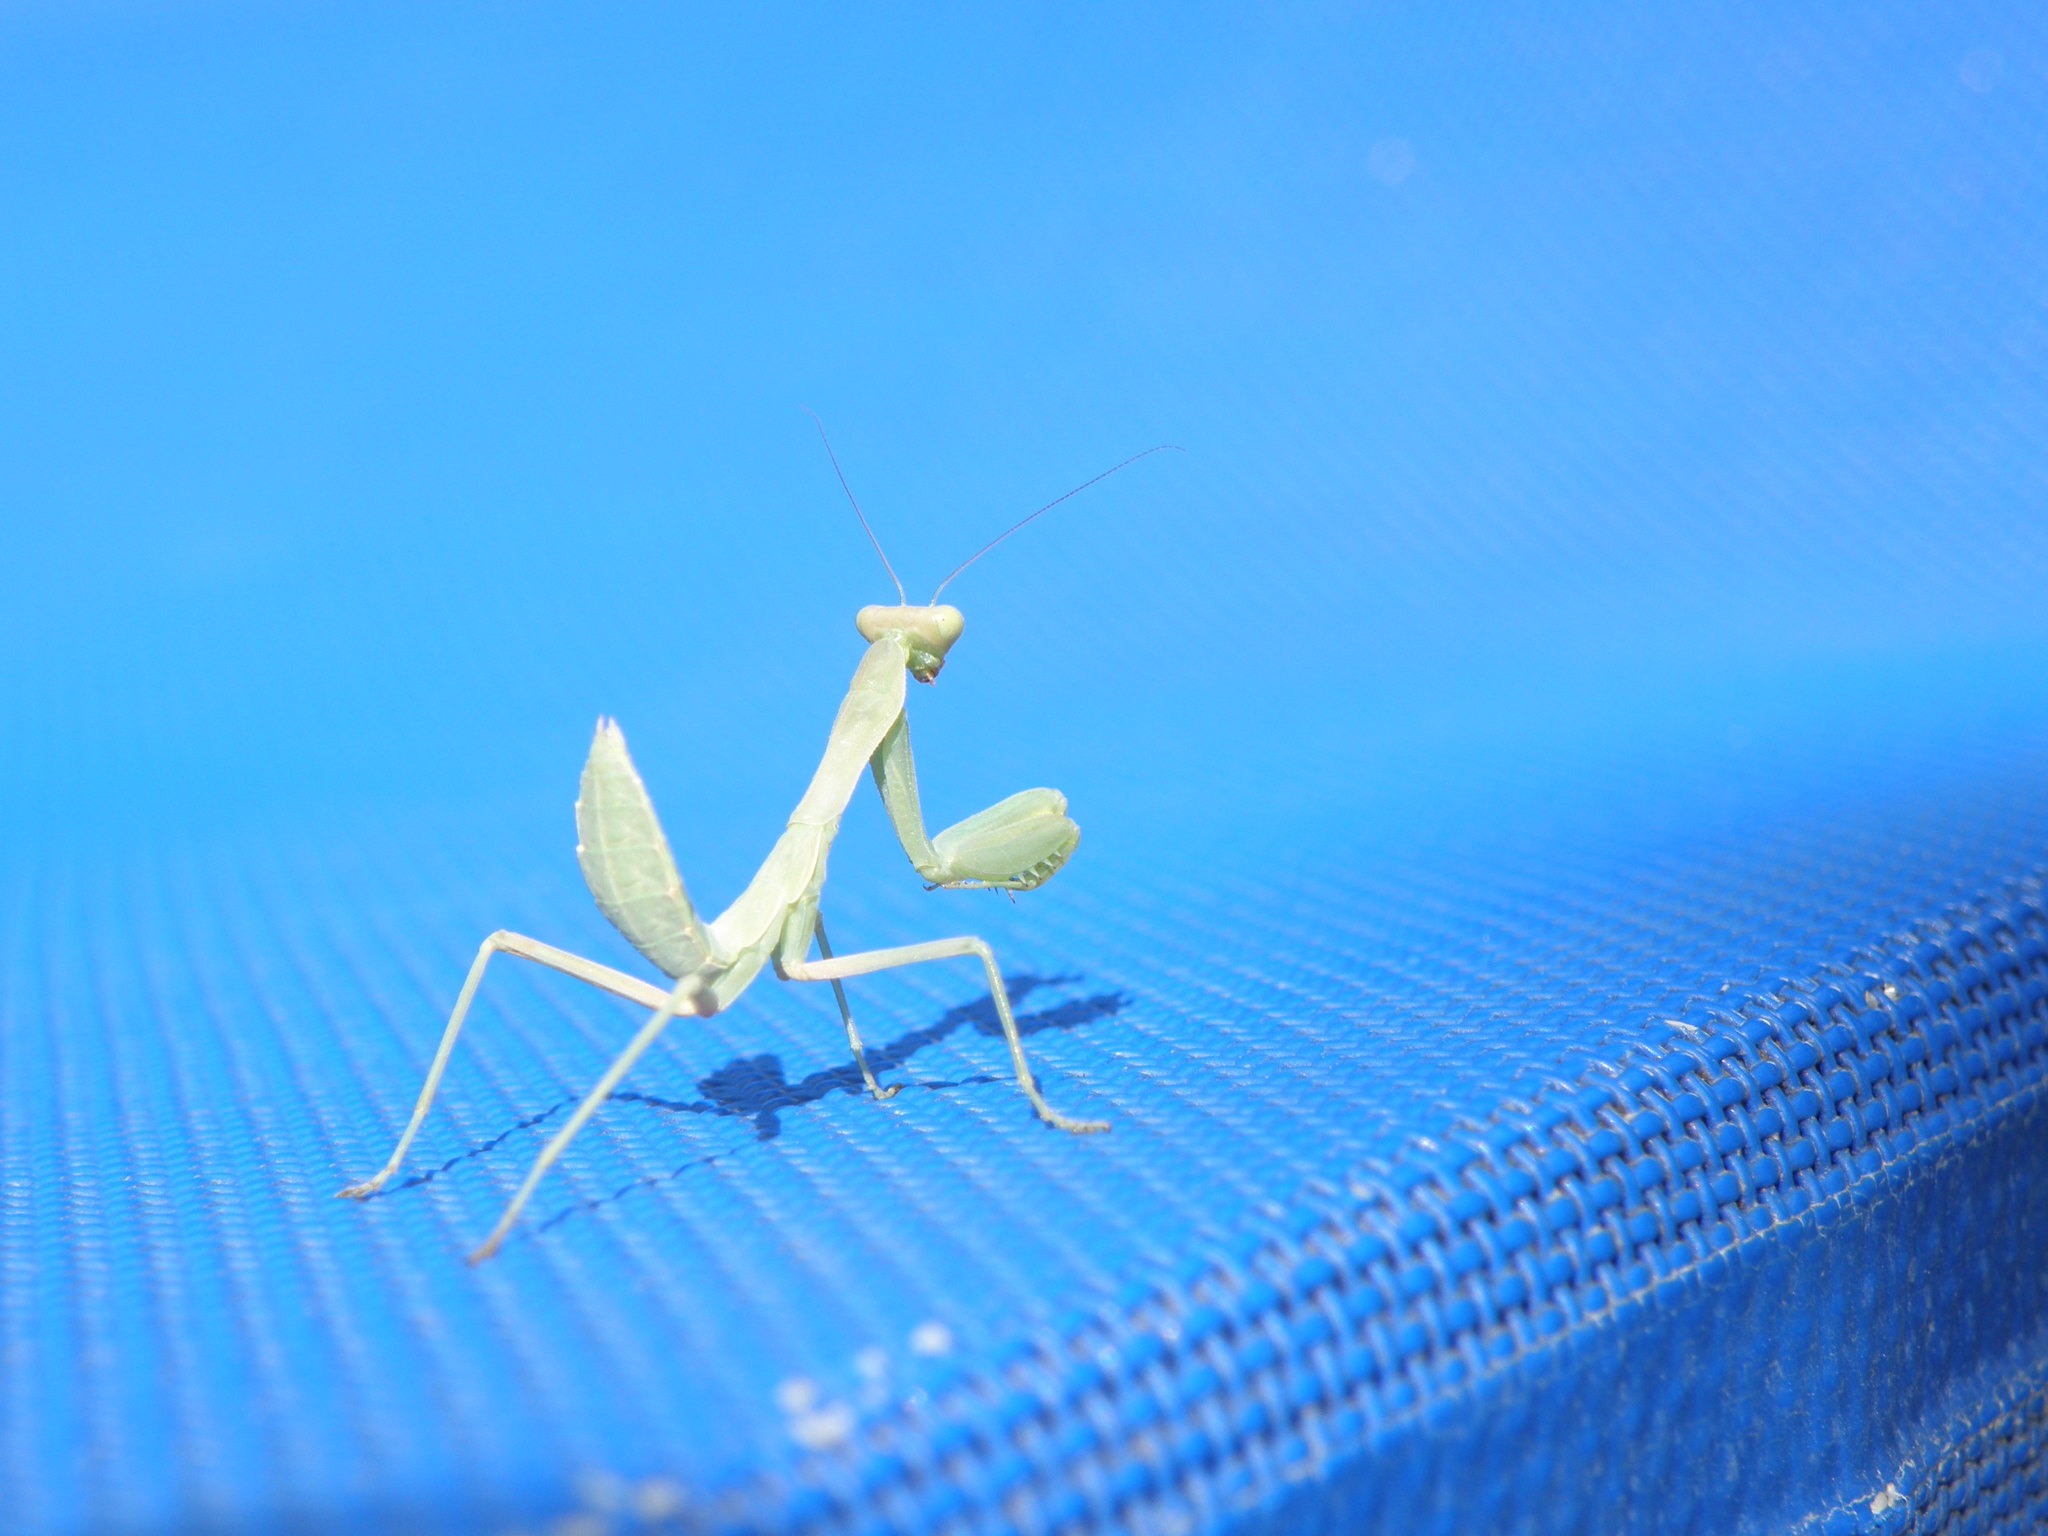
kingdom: Animalia
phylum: Arthropoda
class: Insecta
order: Mantodea
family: Mantidae
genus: Hierodula
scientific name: Hierodula transcaucasica
